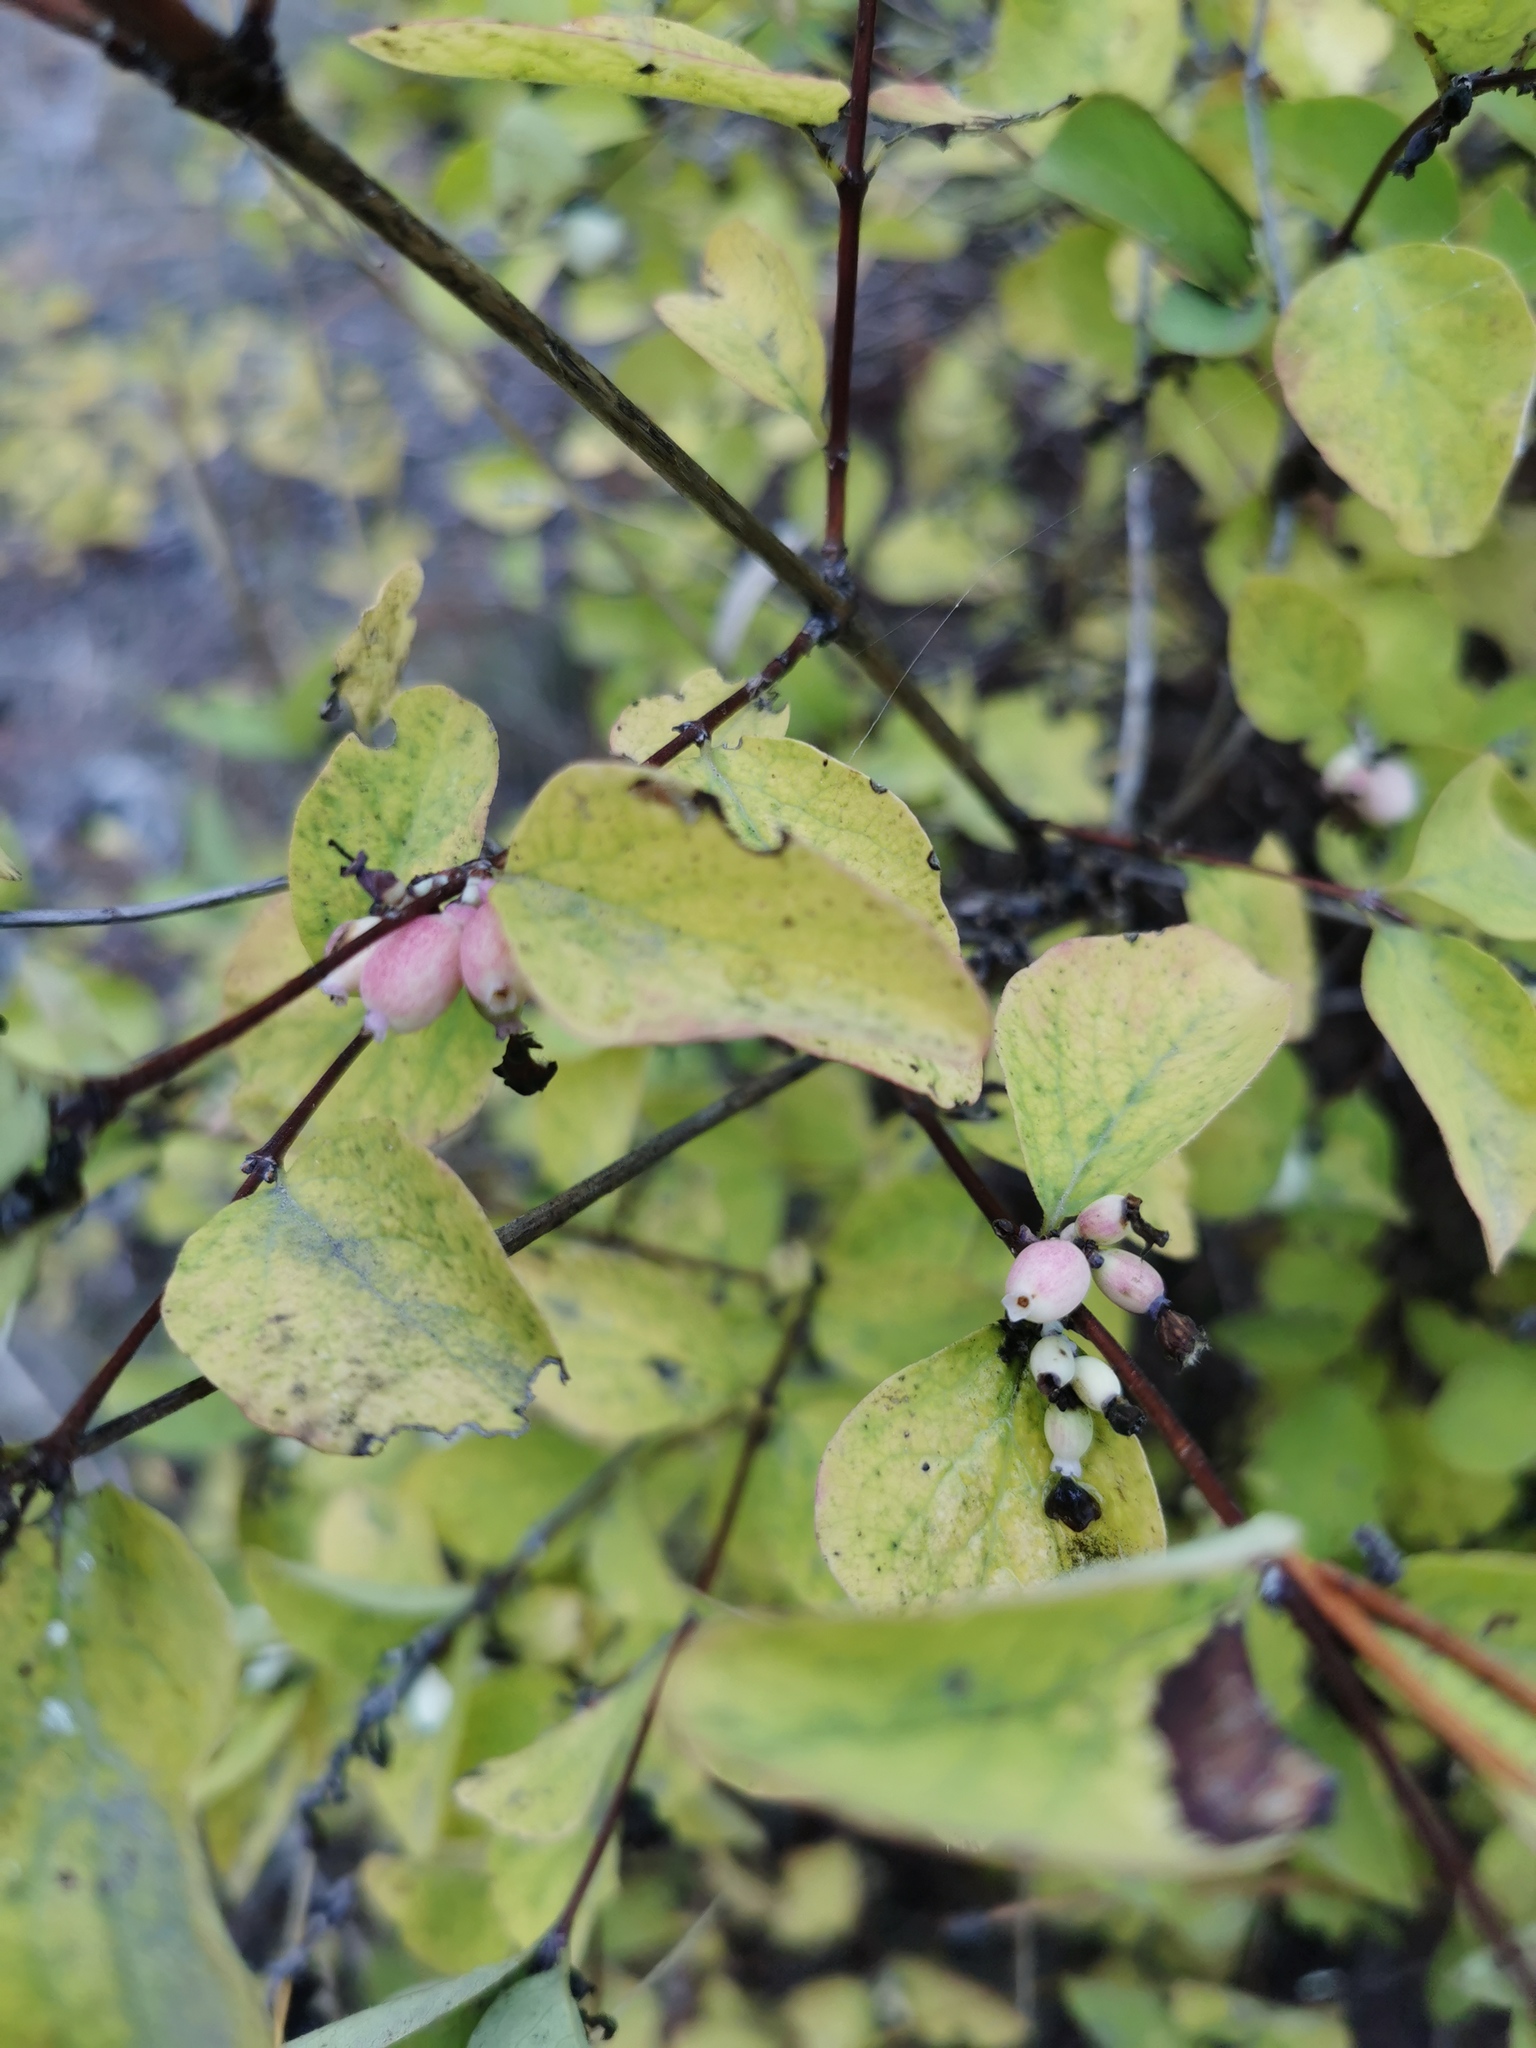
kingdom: Plantae
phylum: Tracheophyta
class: Magnoliopsida
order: Dipsacales
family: Caprifoliaceae
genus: Symphoricarpos
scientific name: Symphoricarpos albus
